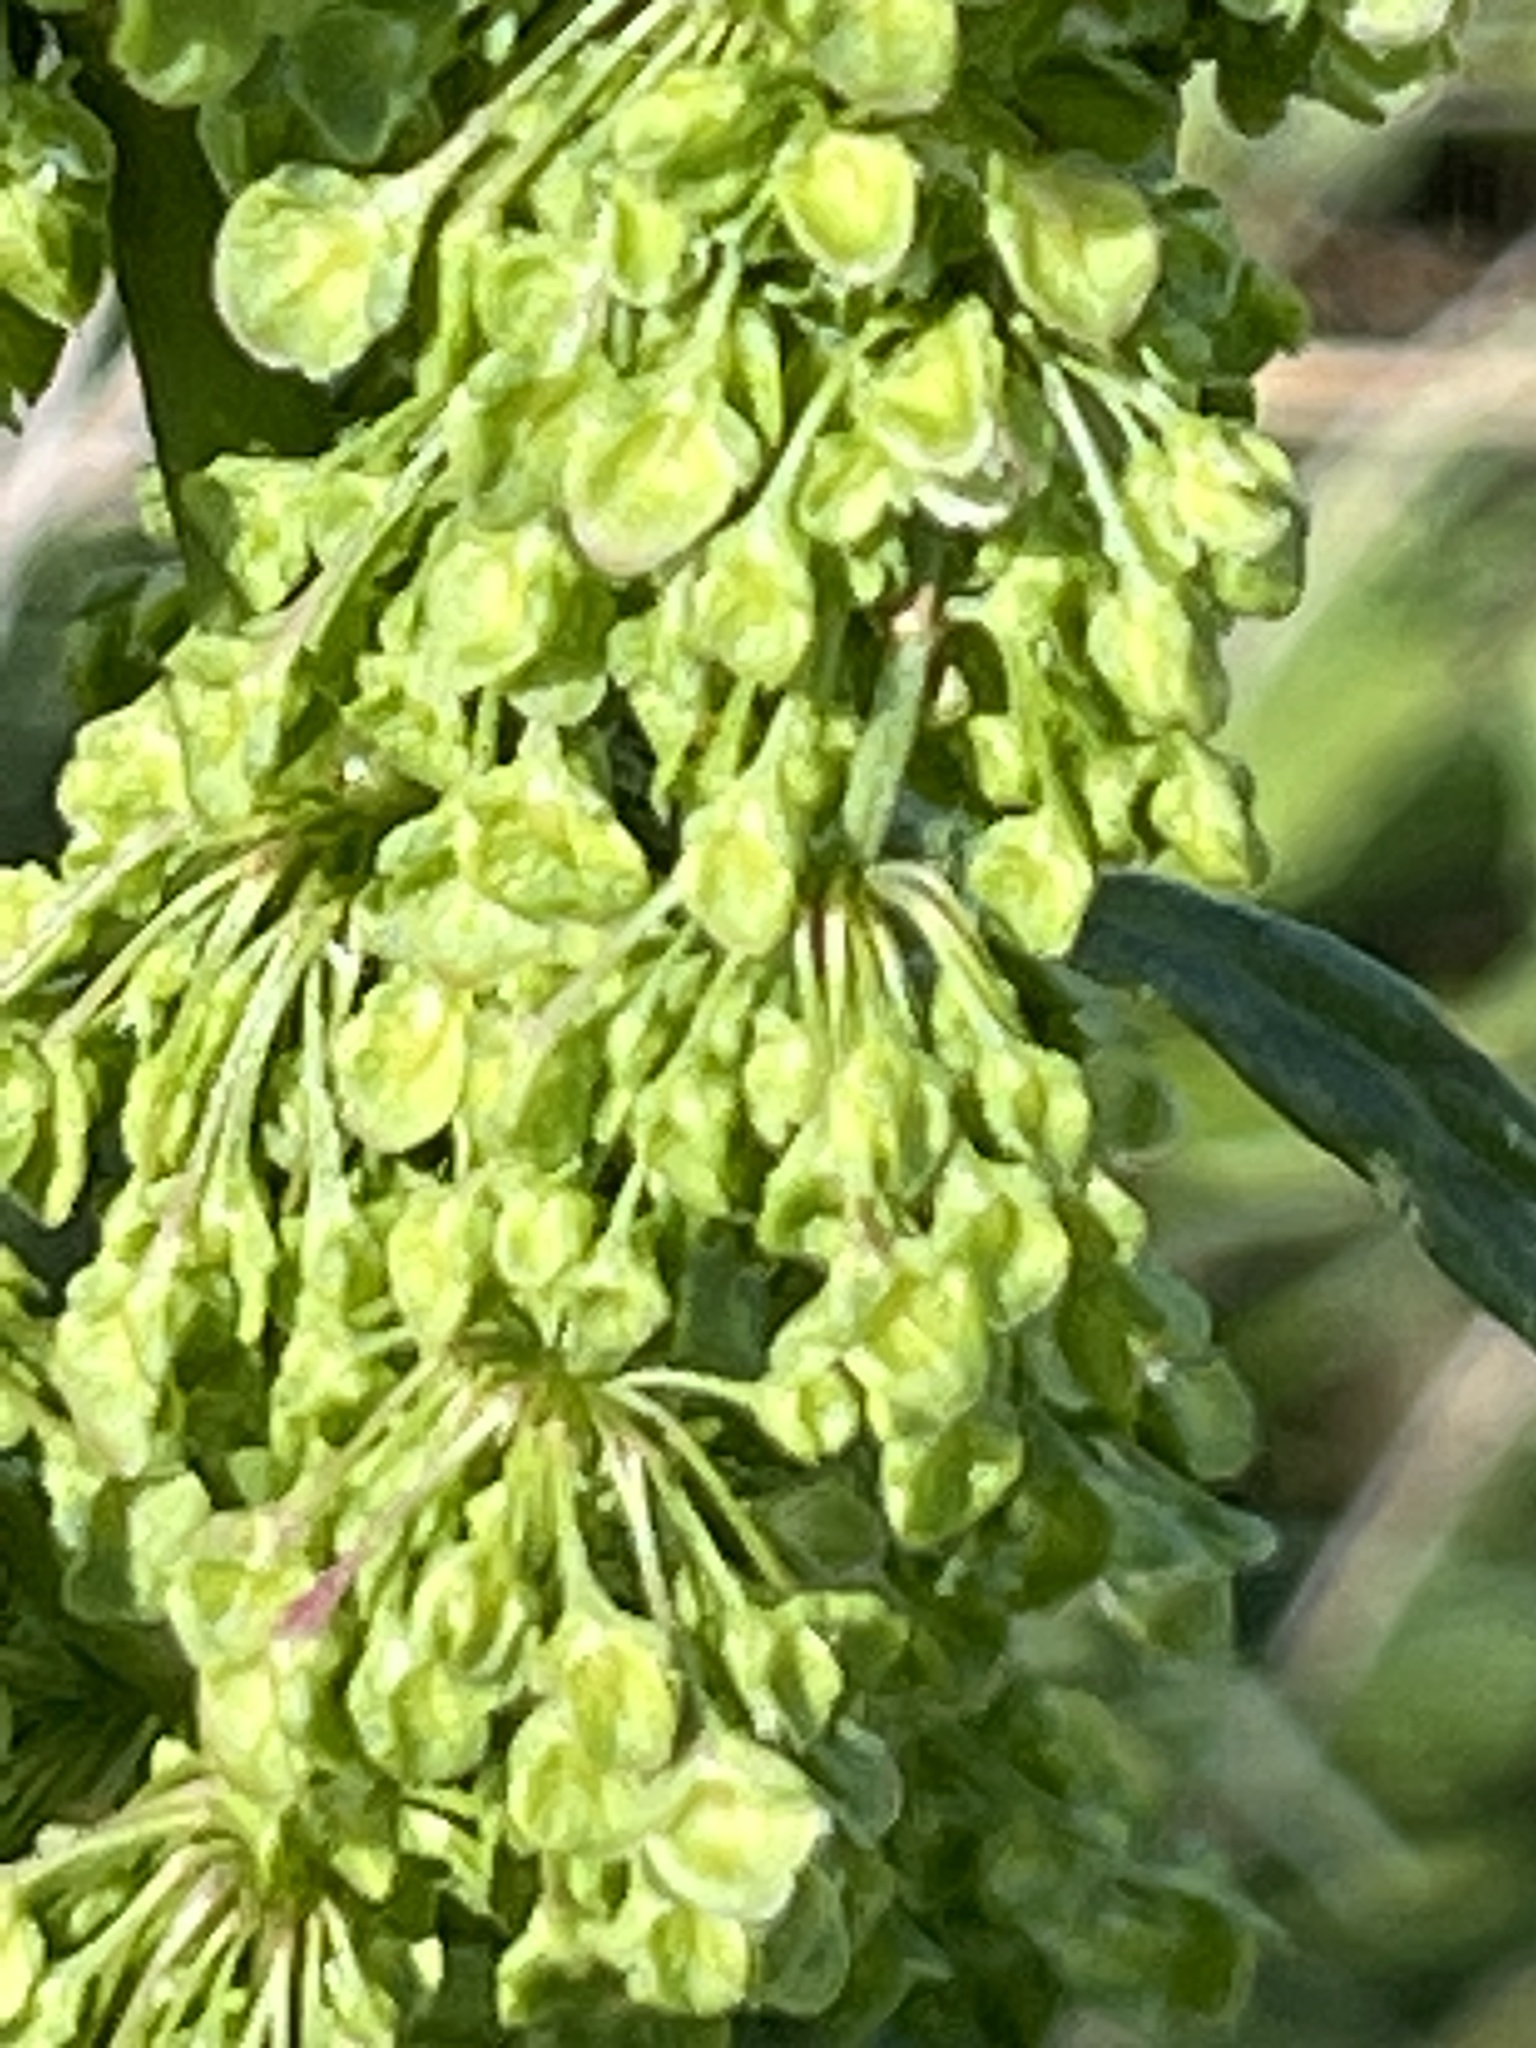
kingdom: Plantae
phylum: Tracheophyta
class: Magnoliopsida
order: Caryophyllales
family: Polygonaceae
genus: Rumex
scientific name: Rumex crispus
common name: Curled dock
